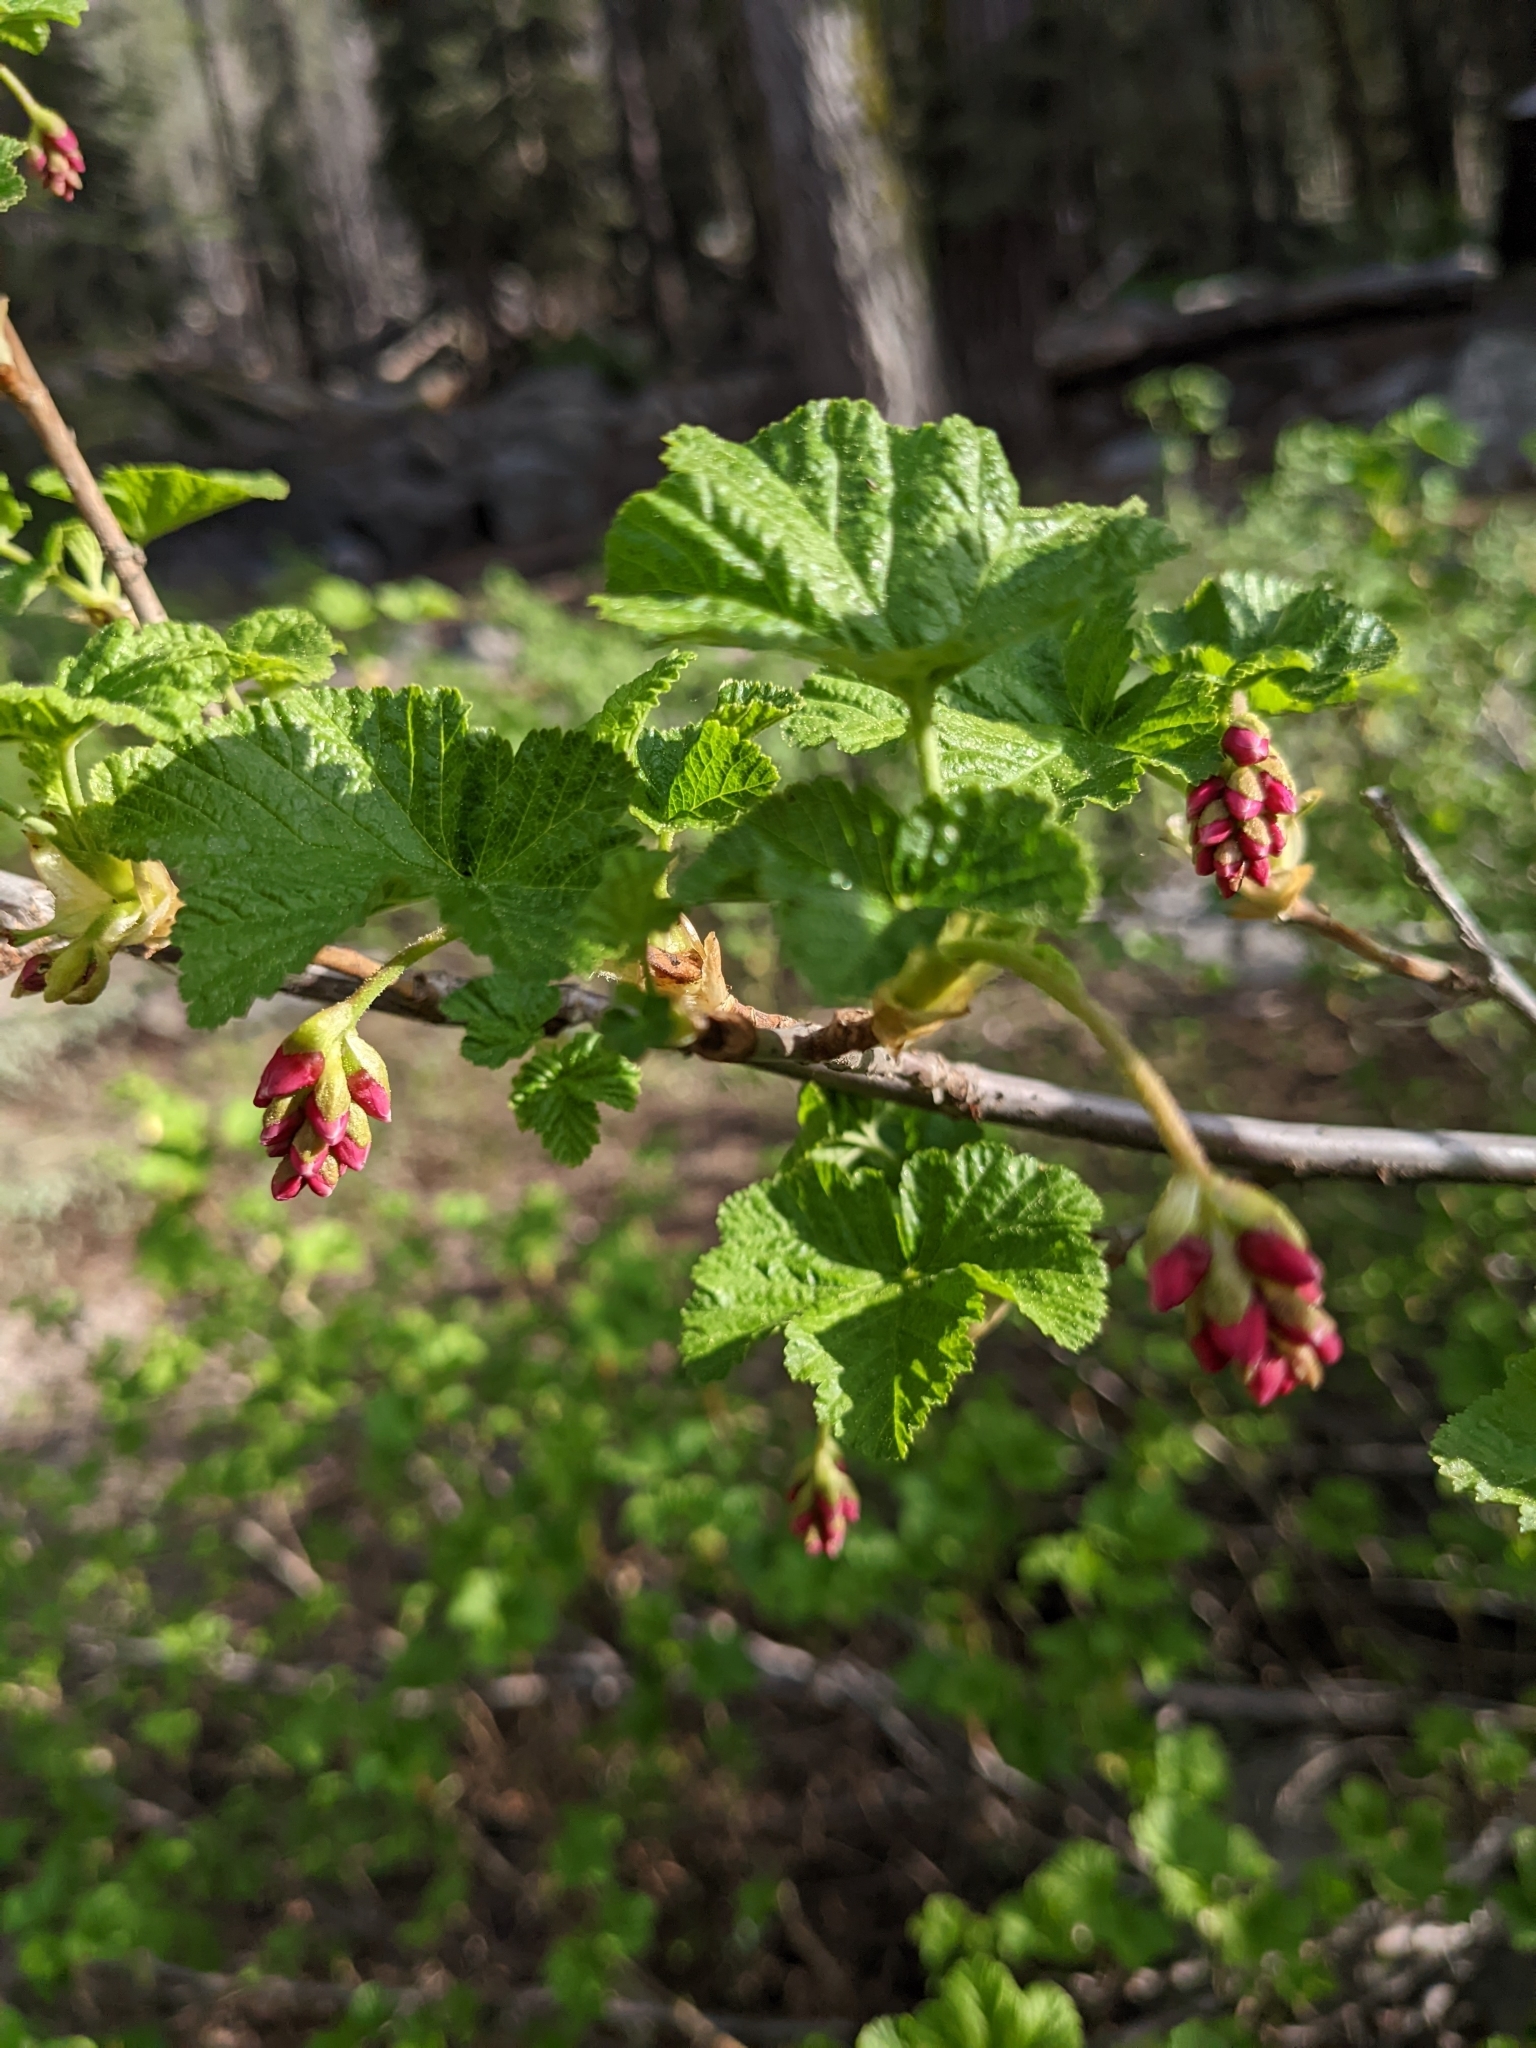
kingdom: Plantae
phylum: Tracheophyta
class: Magnoliopsida
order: Saxifragales
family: Grossulariaceae
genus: Ribes
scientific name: Ribes nevadense
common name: Mountain pink currant
